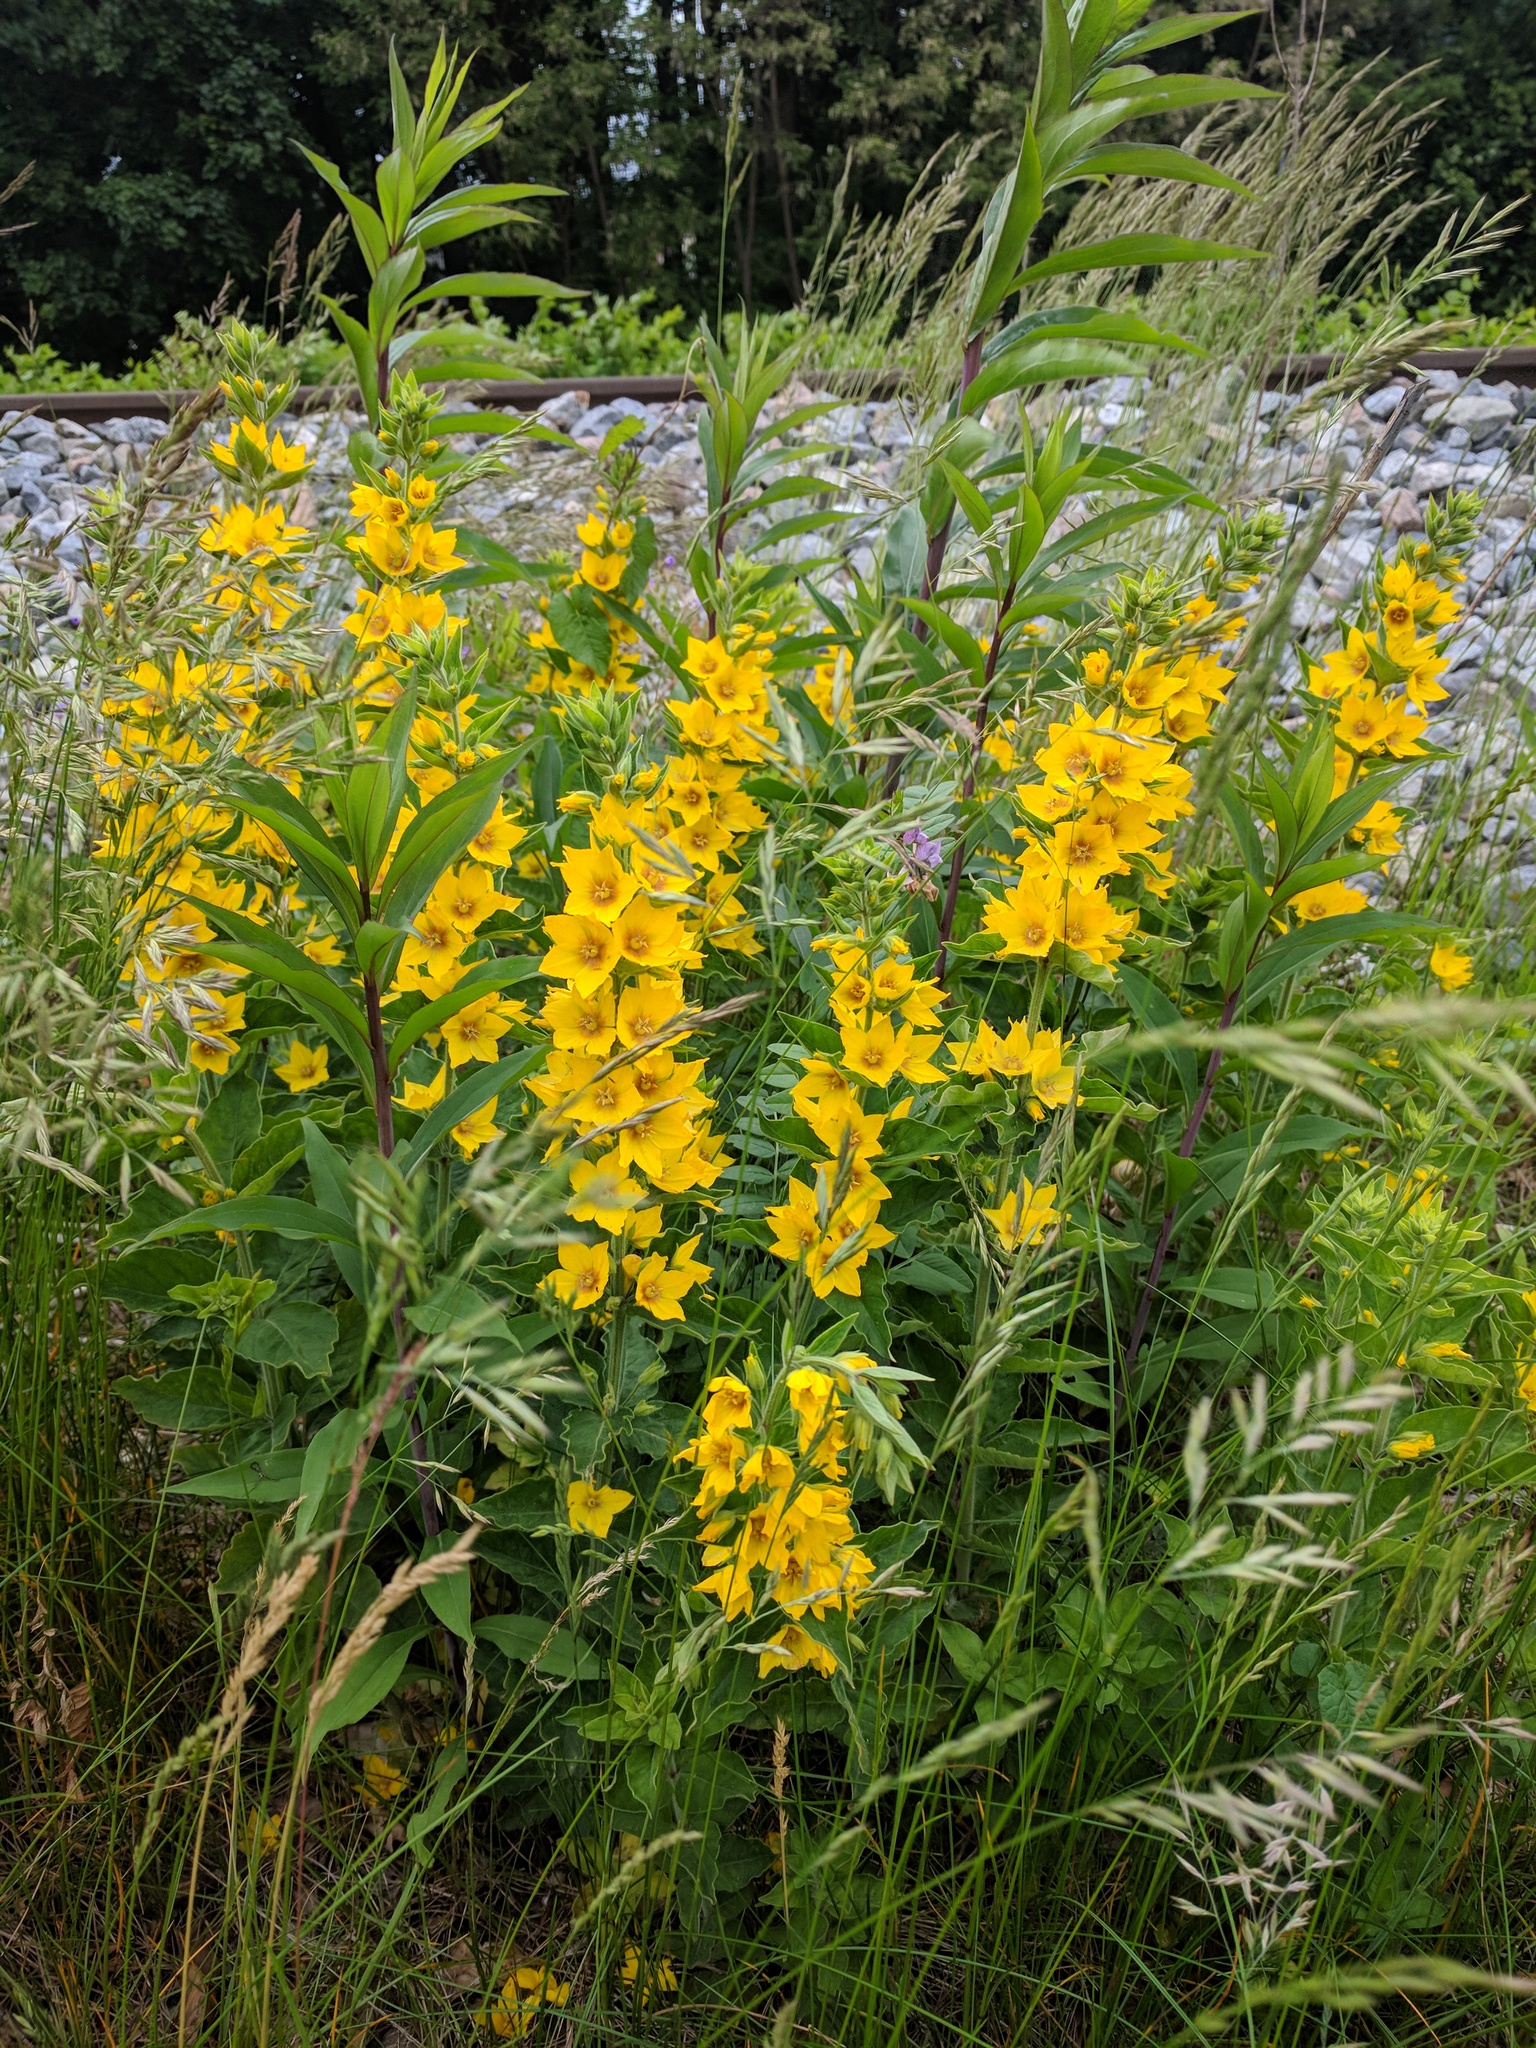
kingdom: Plantae
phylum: Tracheophyta
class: Magnoliopsida
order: Ericales
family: Primulaceae
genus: Lysimachia
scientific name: Lysimachia punctata
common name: Dotted loosestrife
